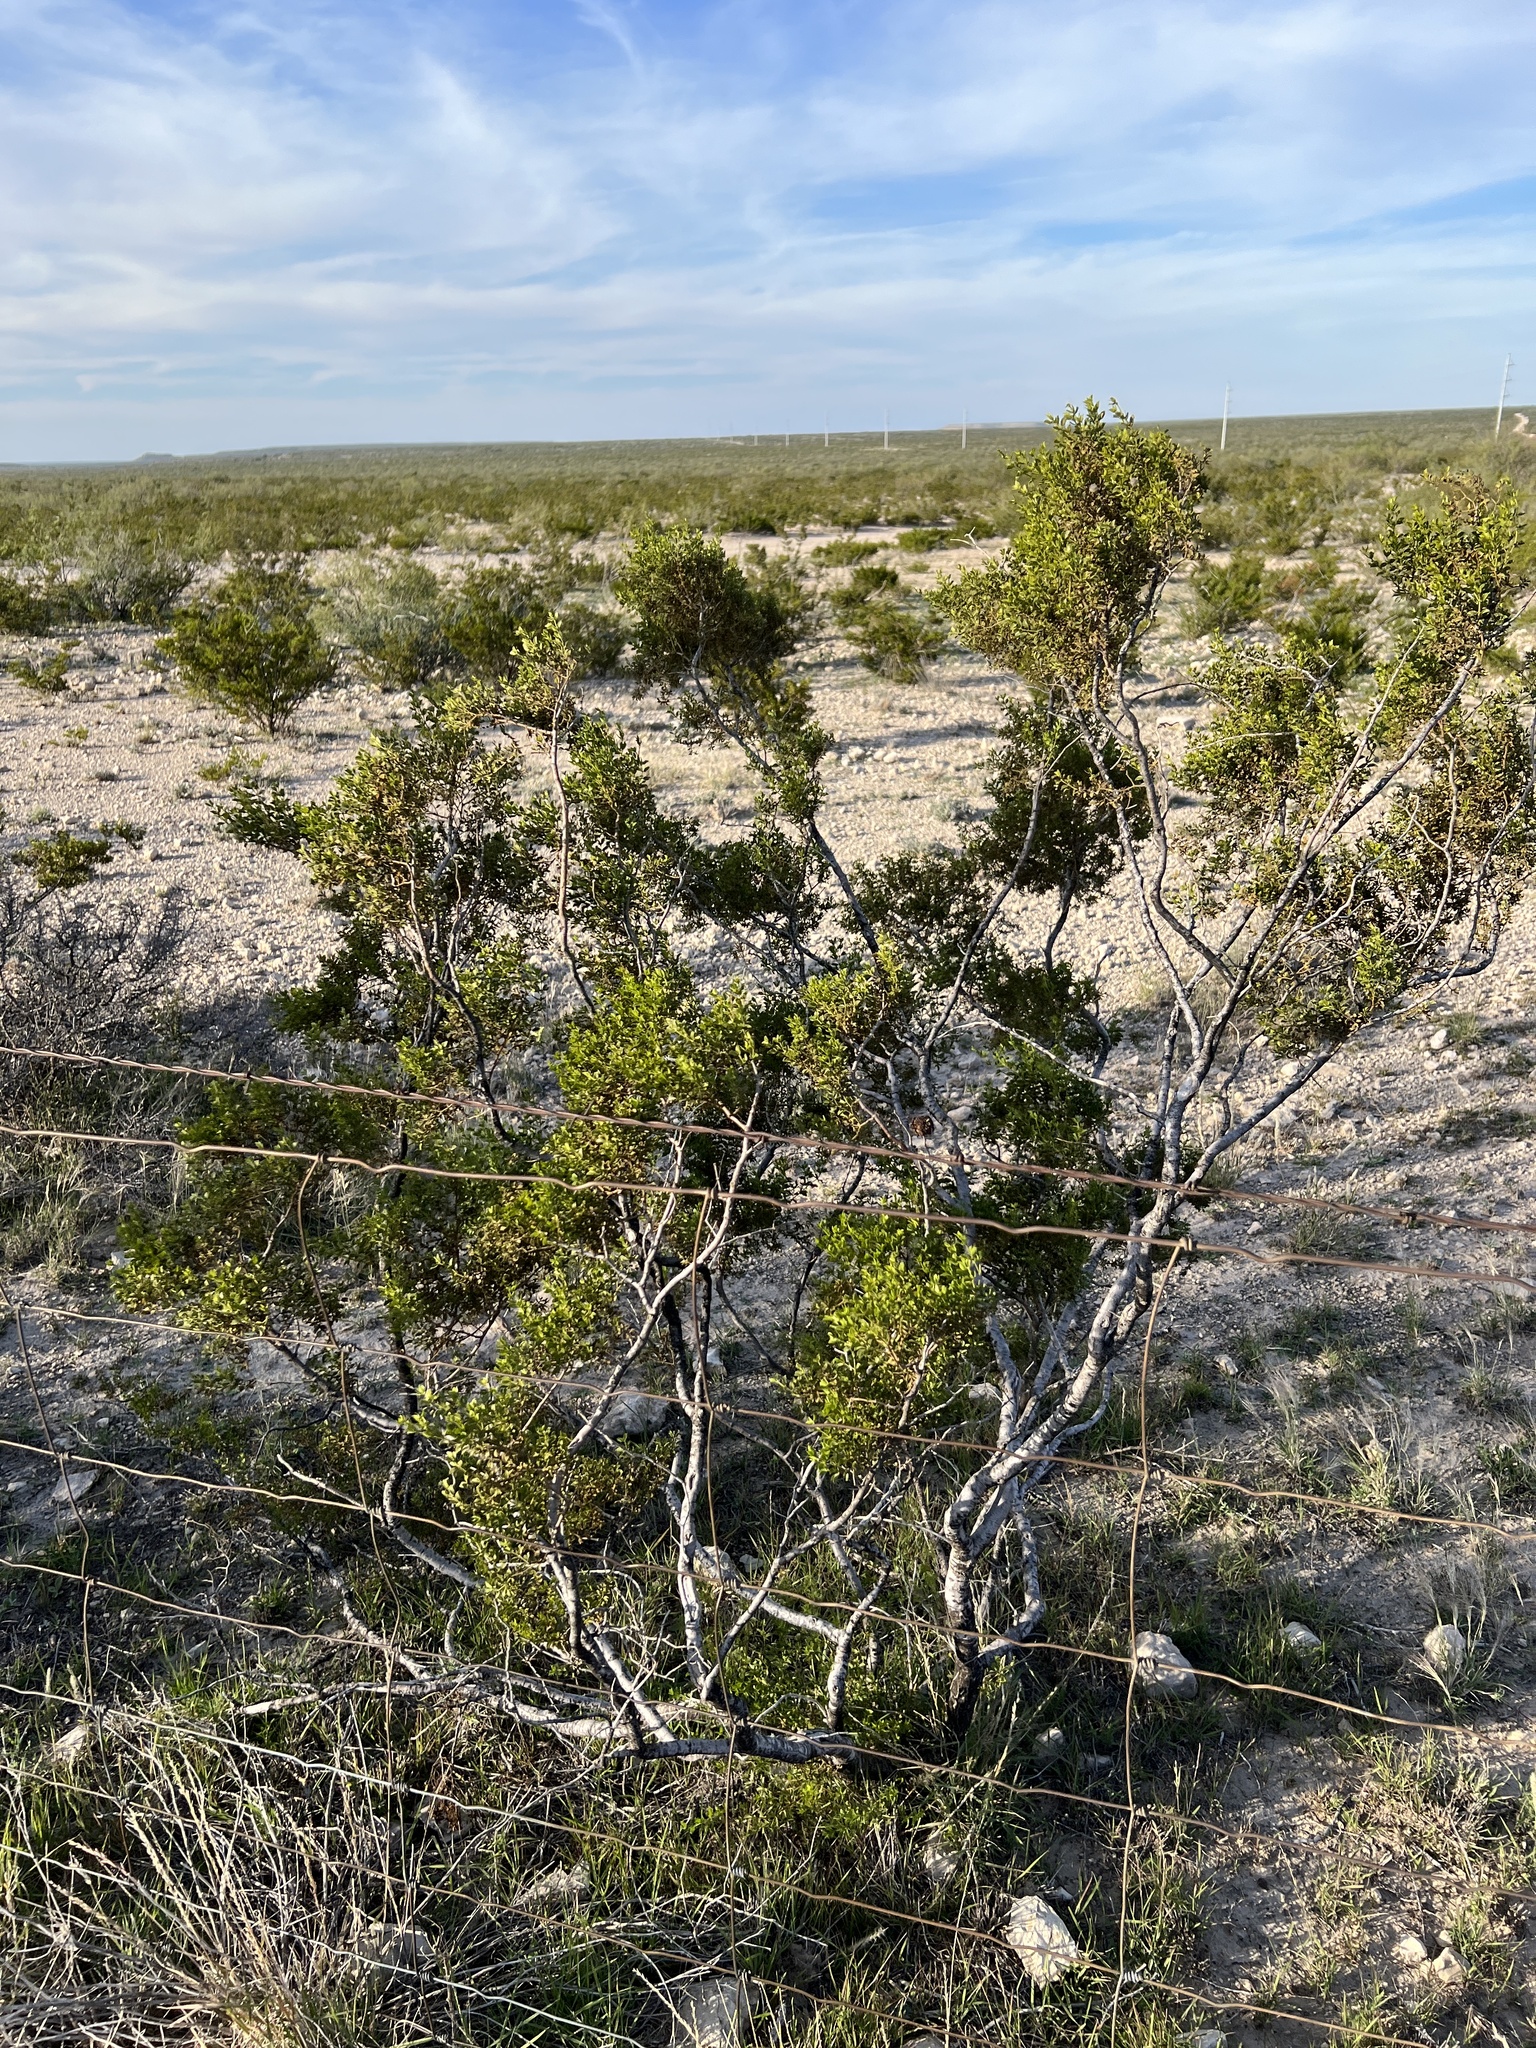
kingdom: Plantae
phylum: Tracheophyta
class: Magnoliopsida
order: Zygophyllales
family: Zygophyllaceae
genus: Larrea
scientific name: Larrea tridentata
